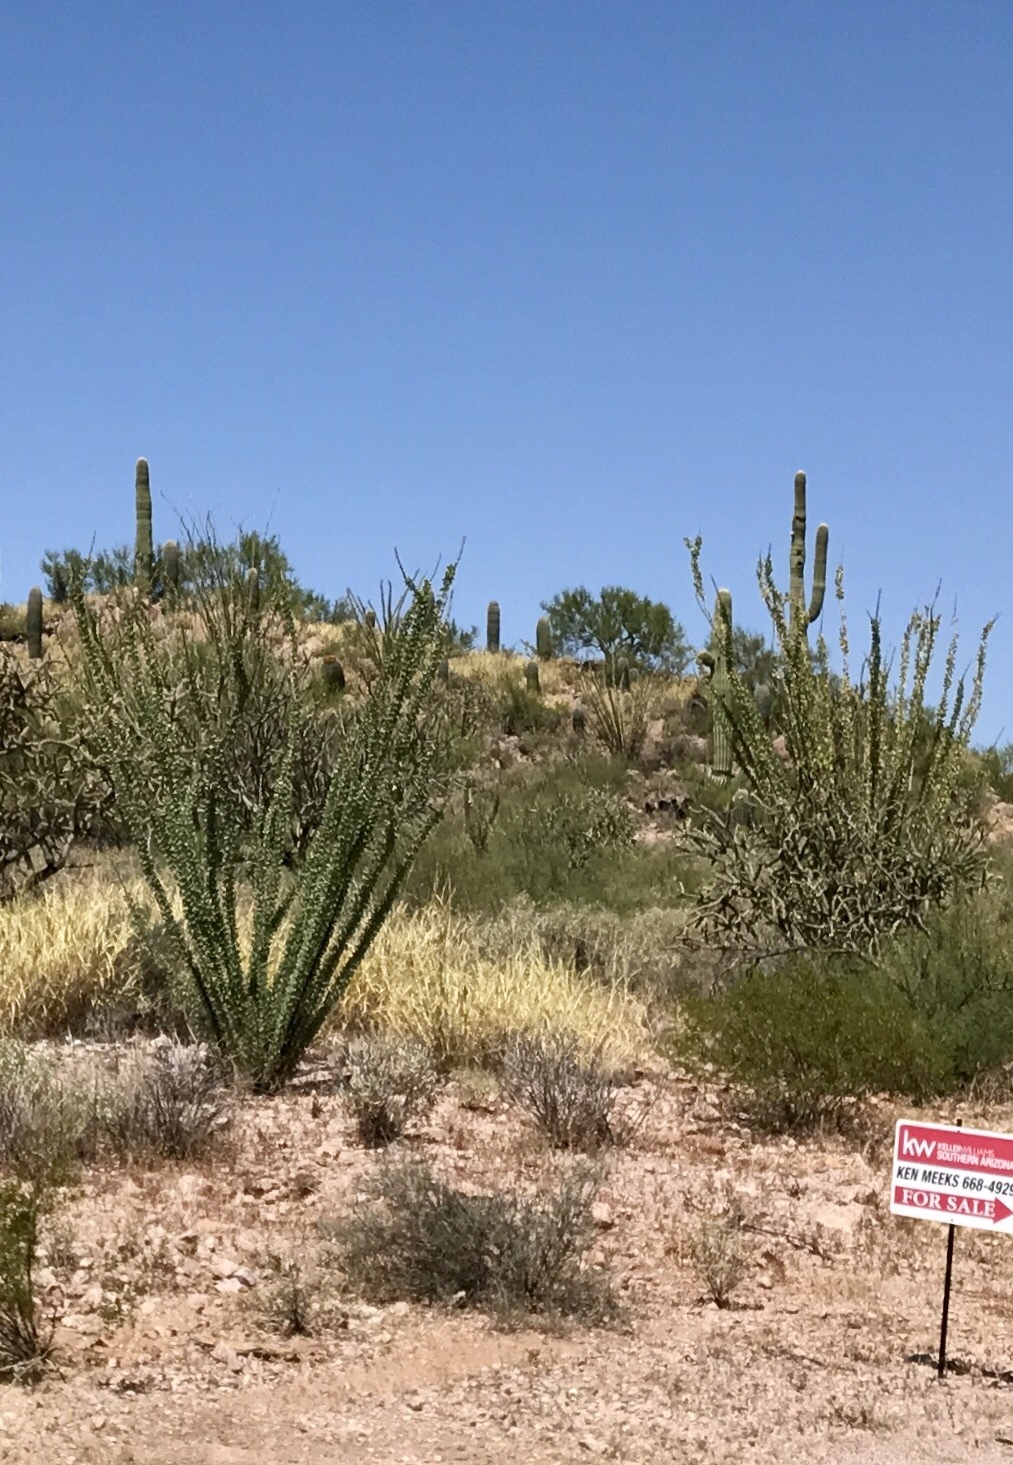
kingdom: Plantae
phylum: Tracheophyta
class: Magnoliopsida
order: Ericales
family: Fouquieriaceae
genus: Fouquieria
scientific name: Fouquieria splendens
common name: Vine-cactus
